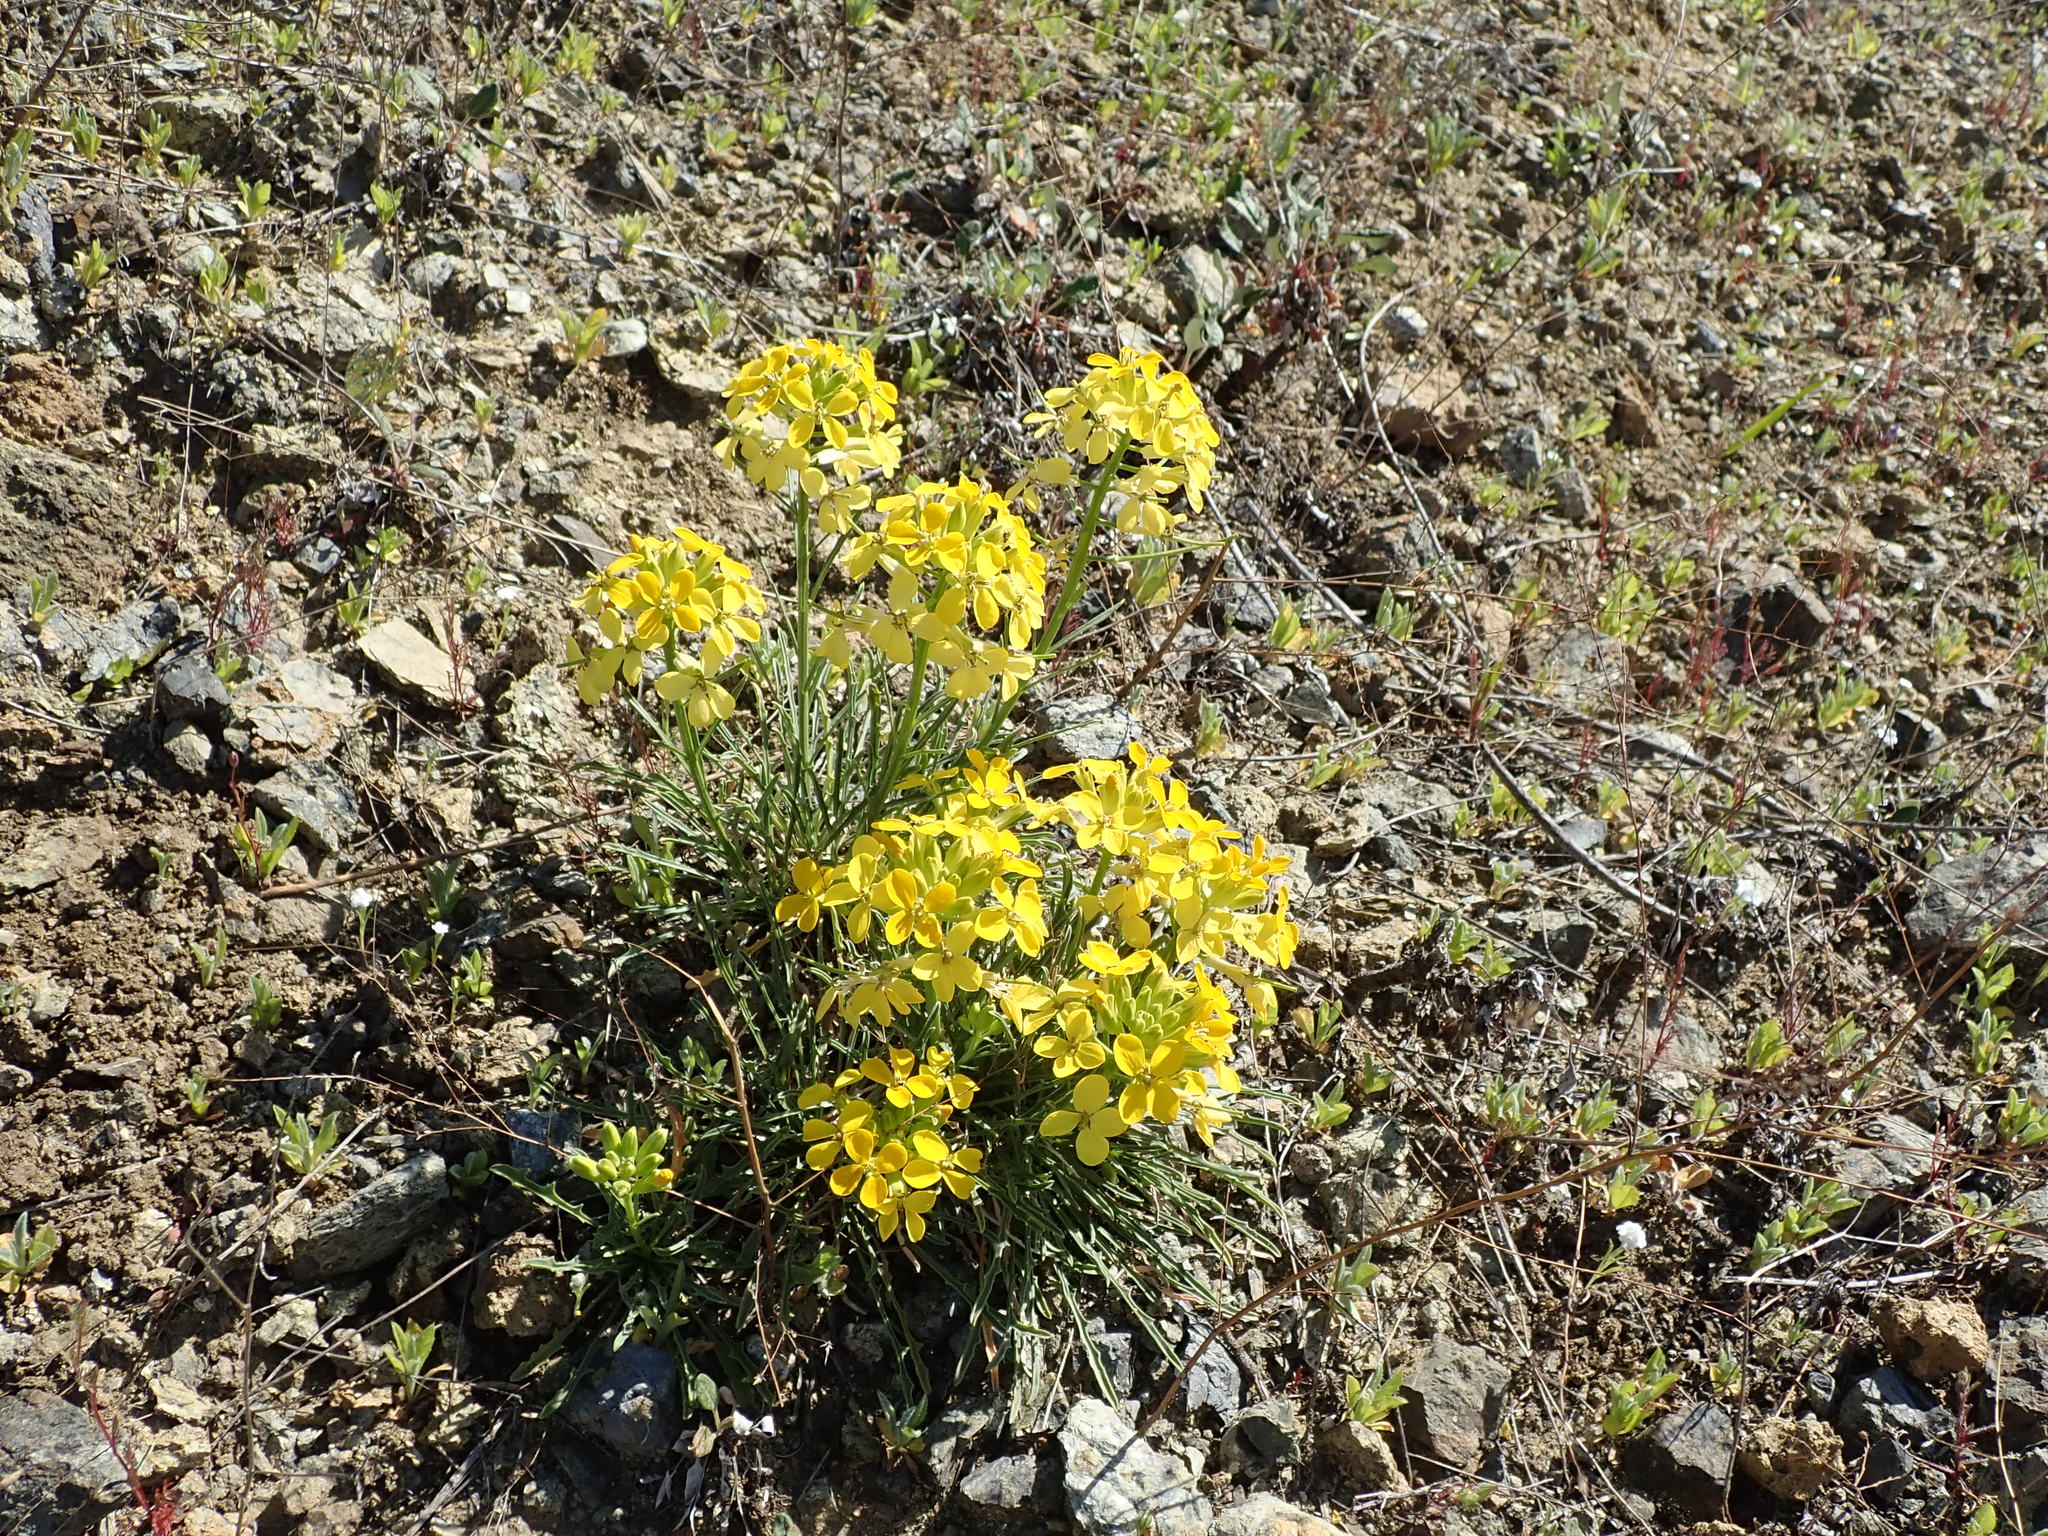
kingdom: Plantae
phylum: Tracheophyta
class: Magnoliopsida
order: Brassicales
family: Brassicaceae
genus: Erysimum
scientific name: Erysimum franciscanum
